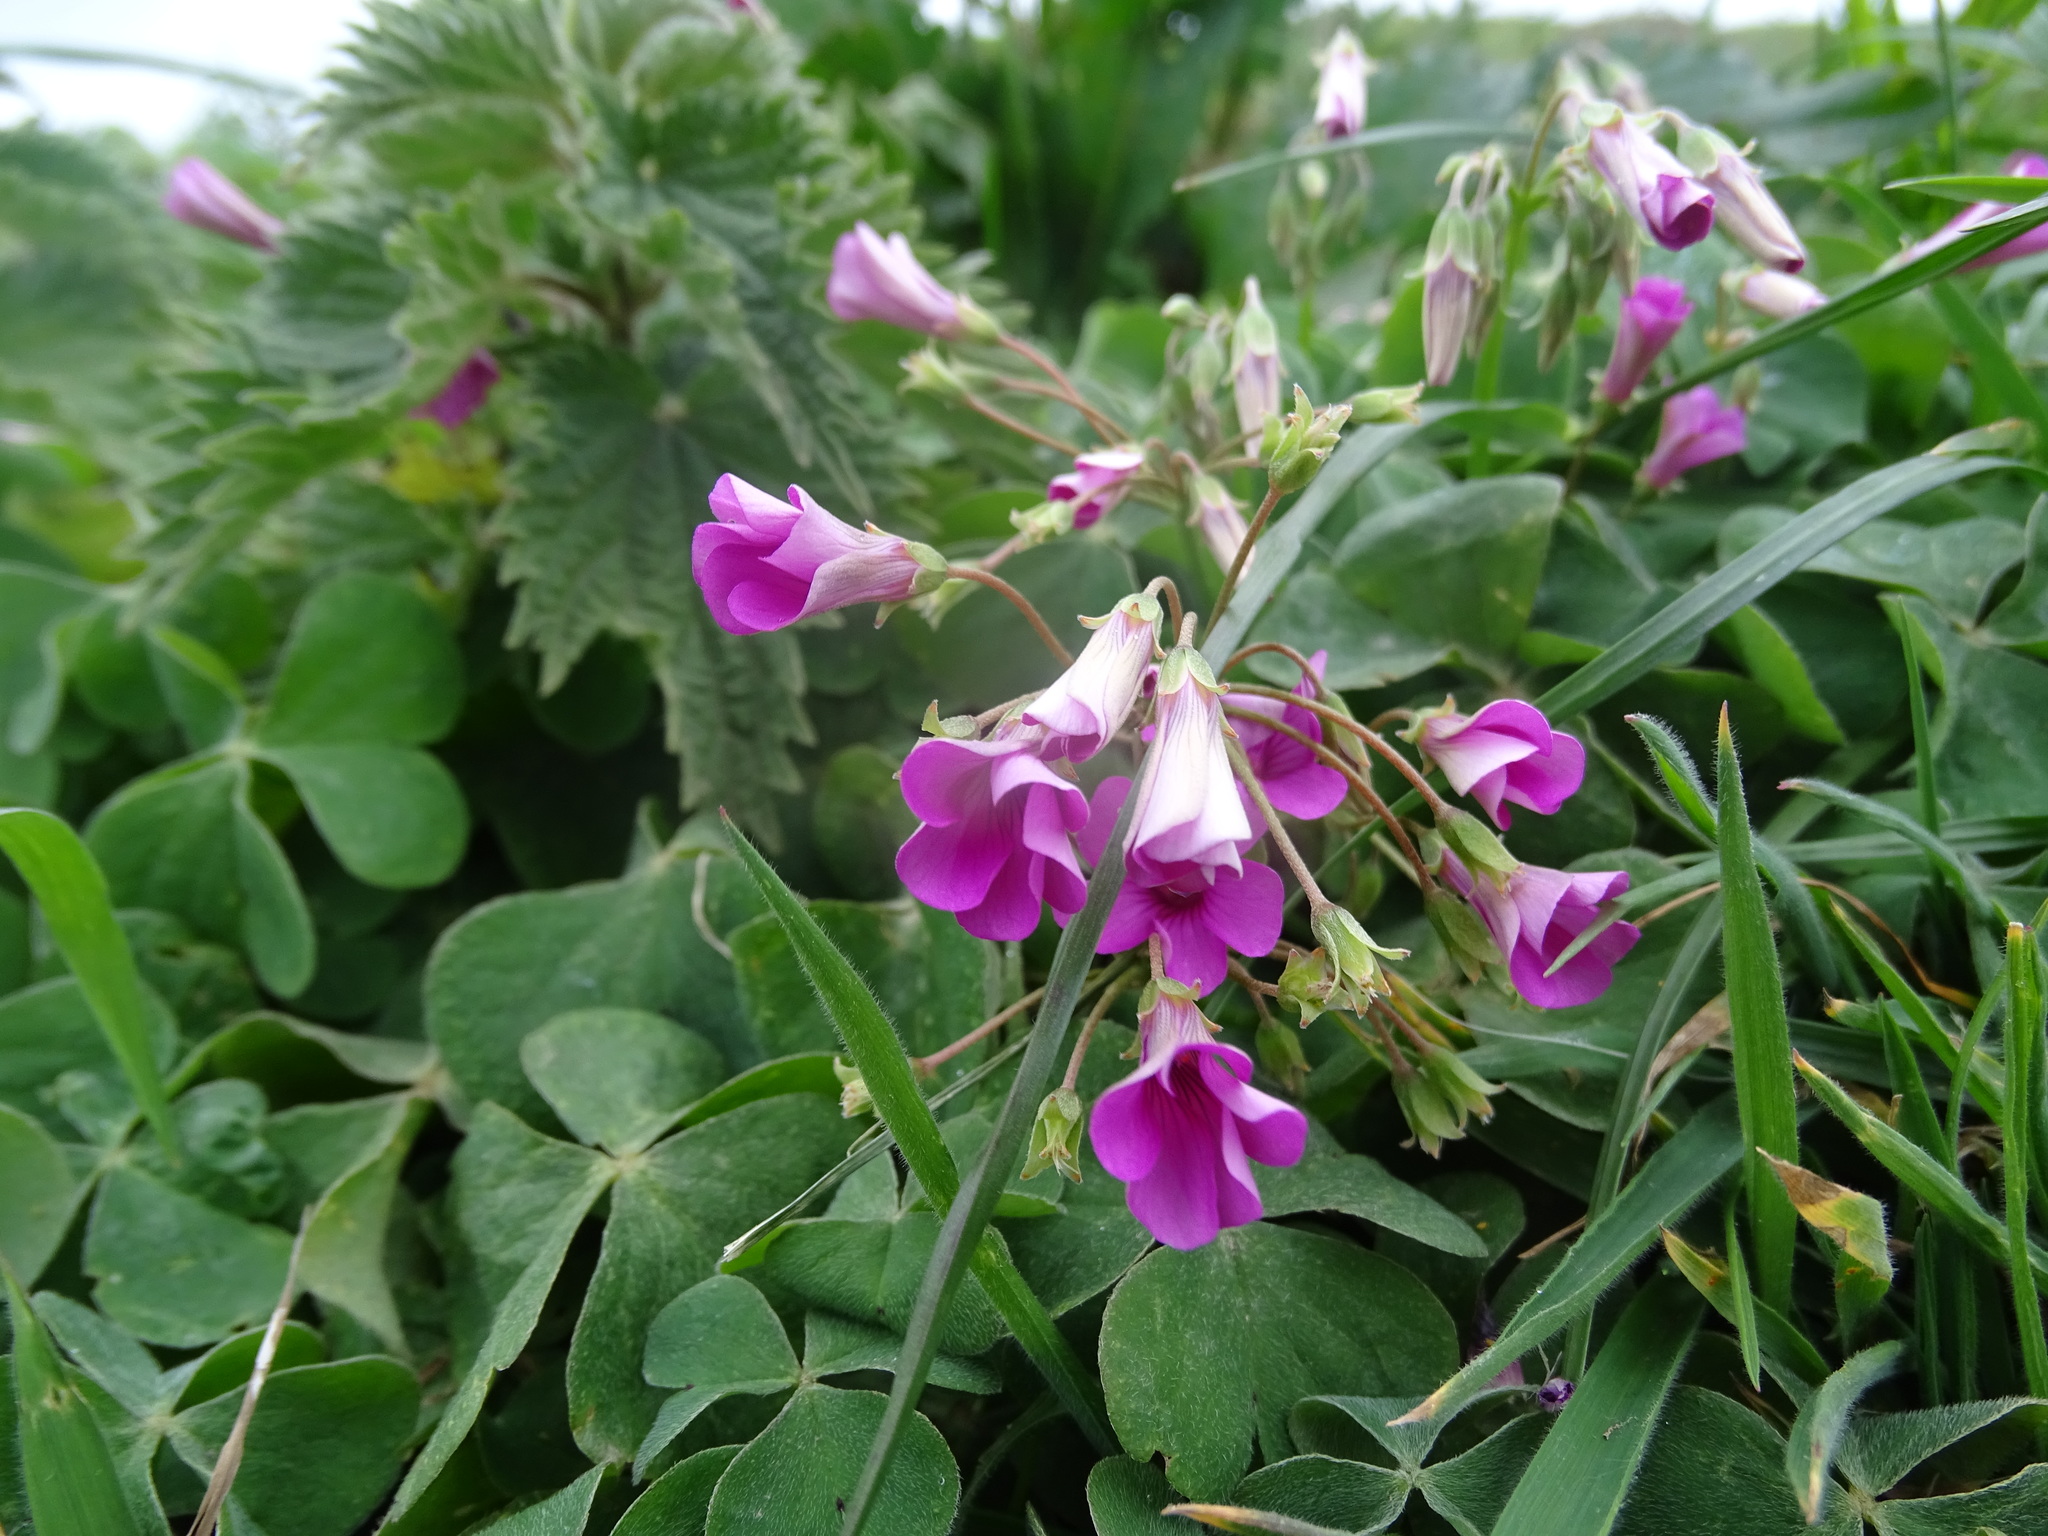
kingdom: Plantae
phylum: Tracheophyta
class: Magnoliopsida
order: Oxalidales
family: Oxalidaceae
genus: Oxalis
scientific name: Oxalis articulata
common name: Pink-sorrel
